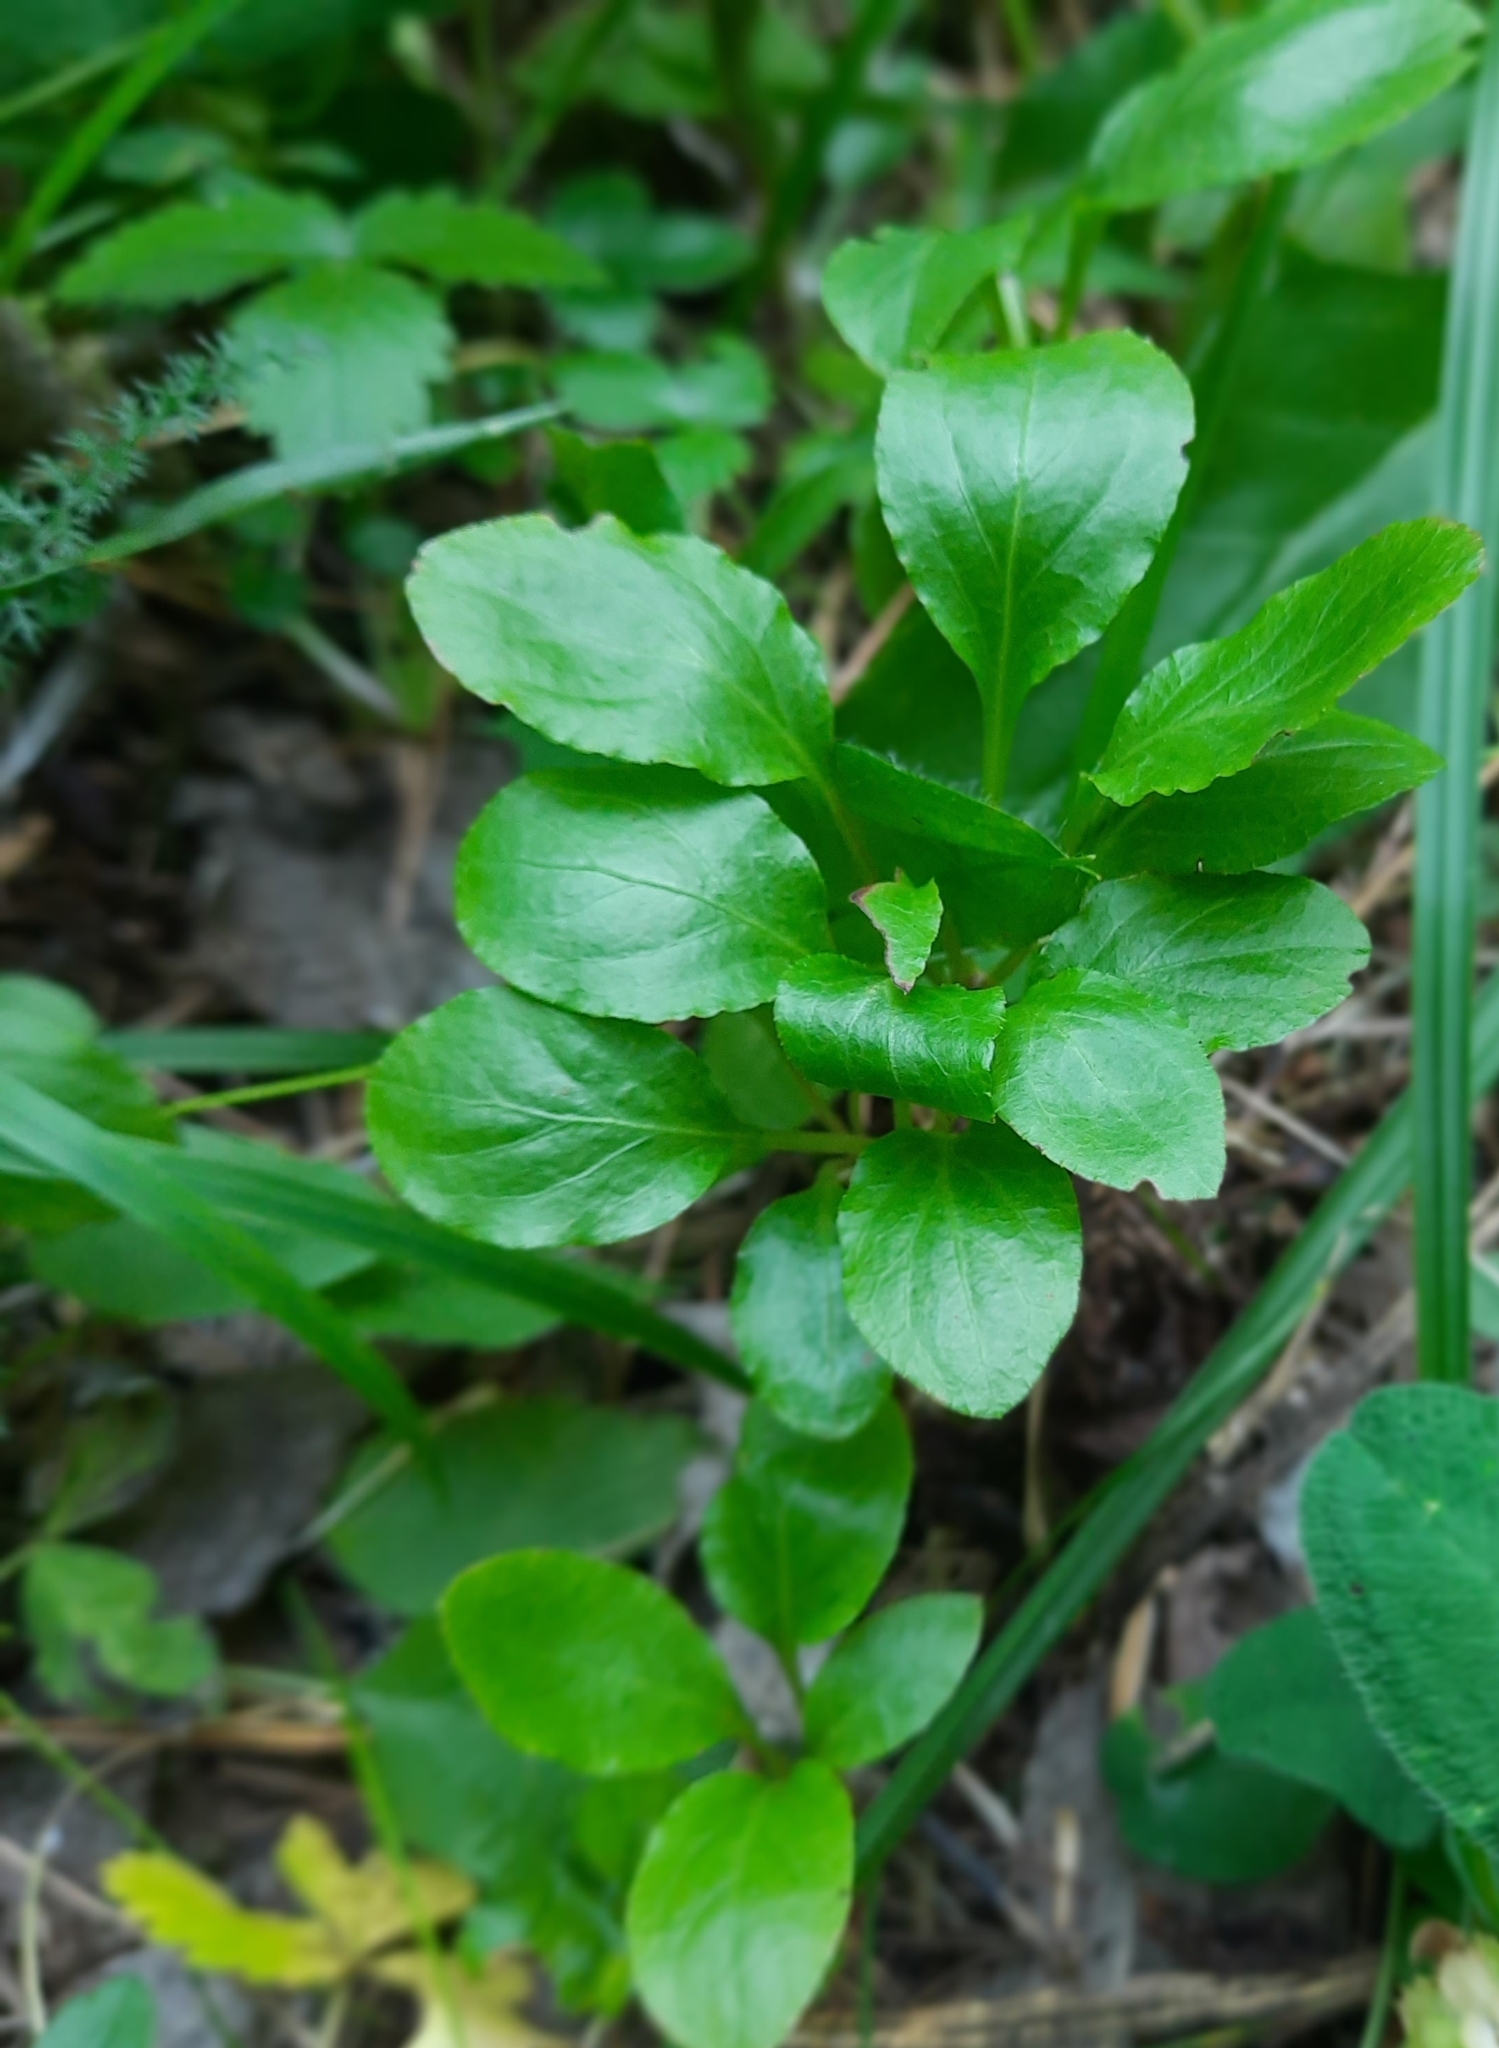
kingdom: Plantae
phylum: Tracheophyta
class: Magnoliopsida
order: Ericales
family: Ericaceae
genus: Pyrola
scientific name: Pyrola minor
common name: Common wintergreen
